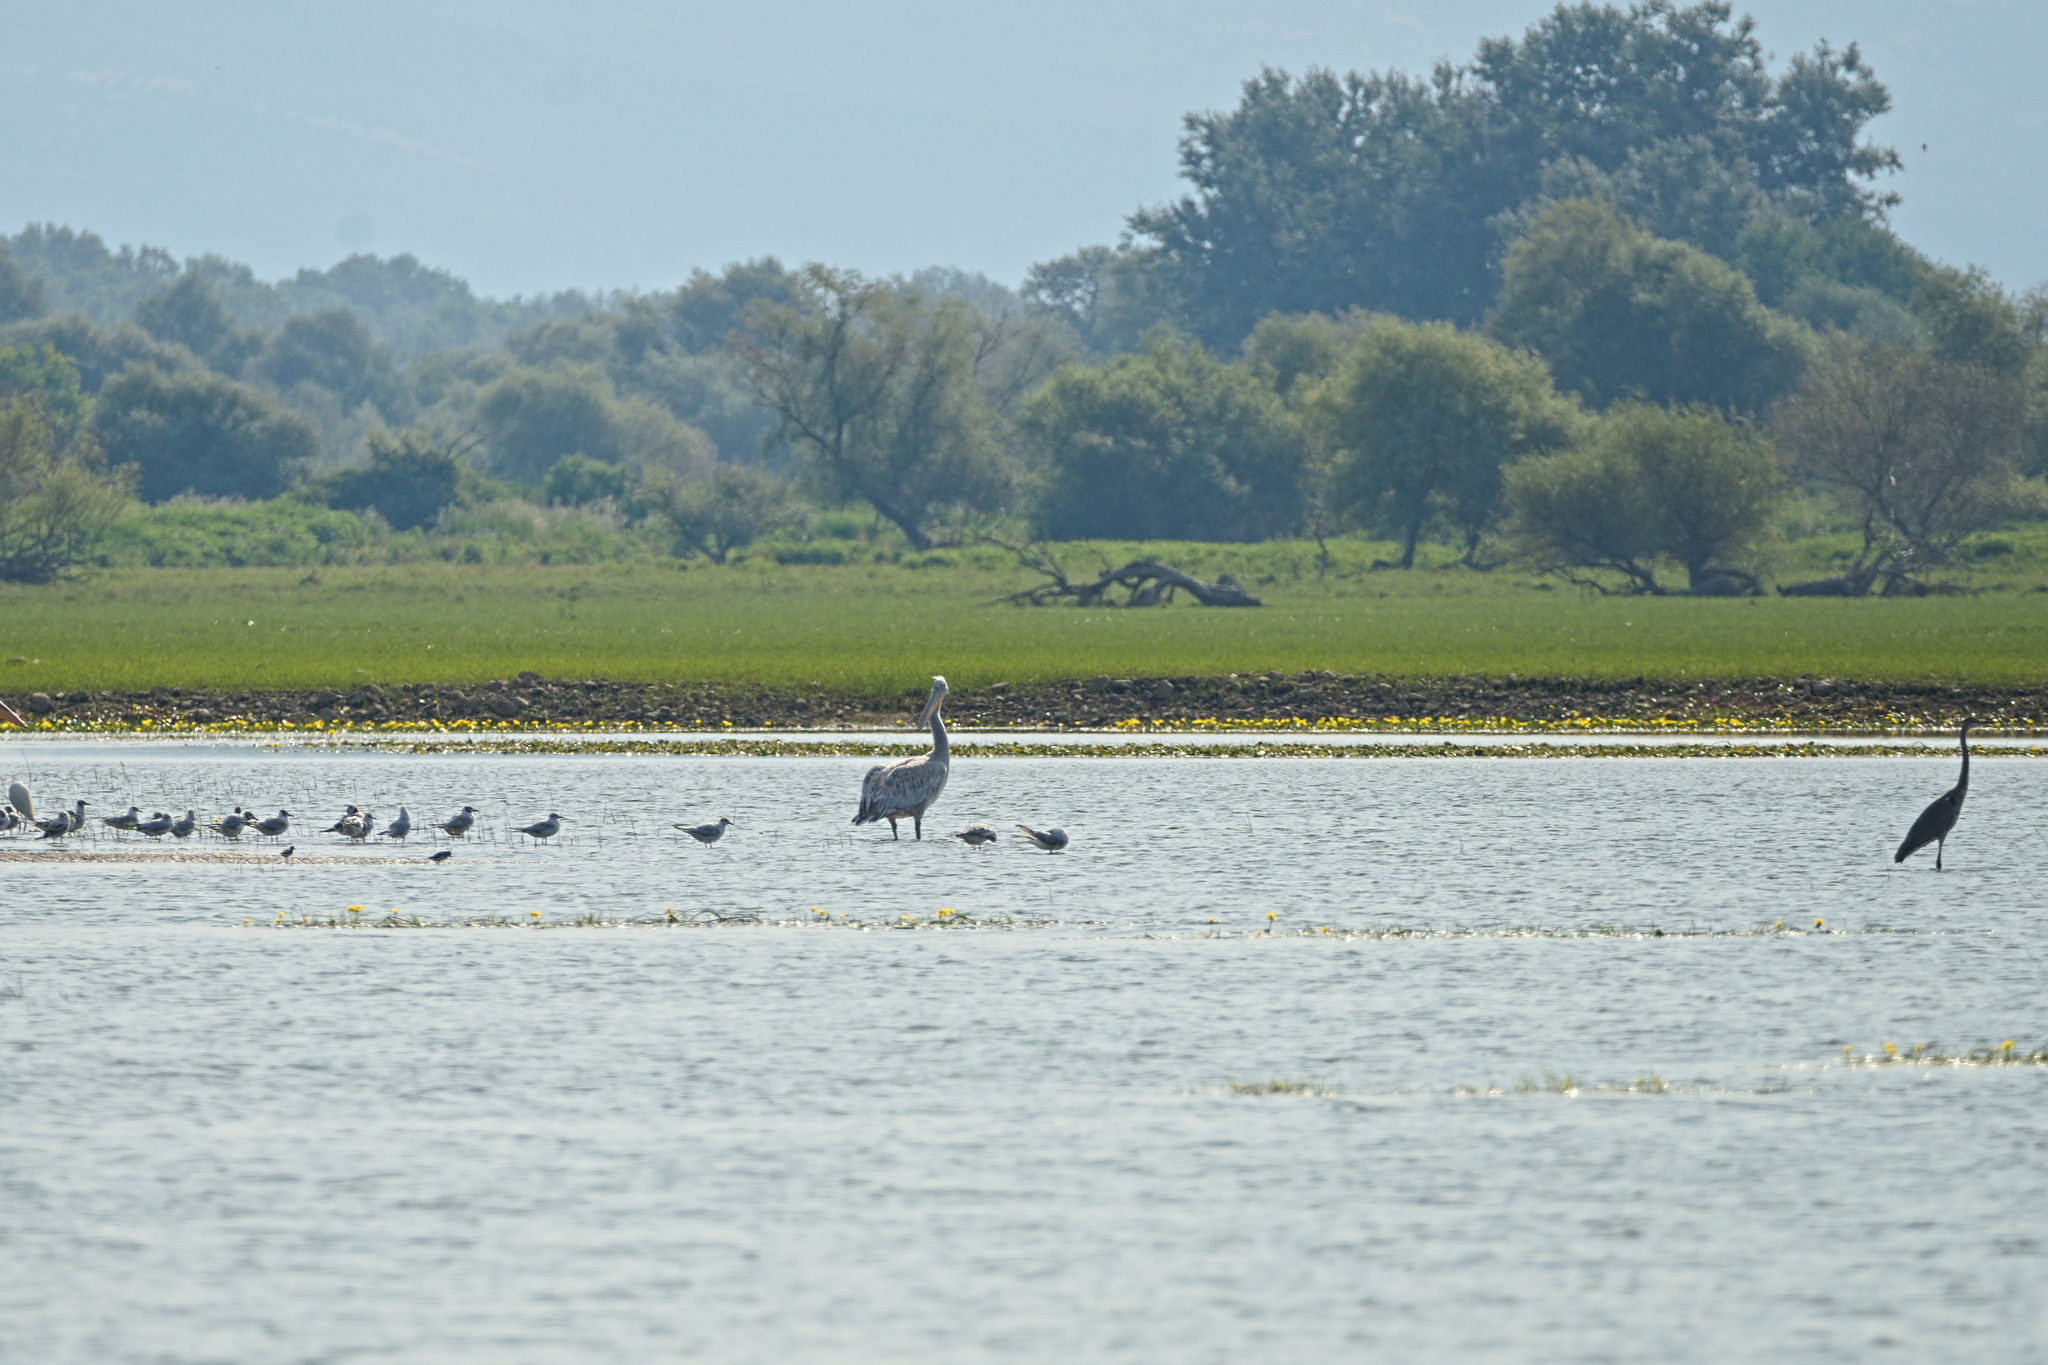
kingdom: Animalia
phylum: Chordata
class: Aves
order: Pelecaniformes
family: Pelecanidae
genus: Pelecanus
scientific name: Pelecanus crispus
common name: Dalmatian pelican
